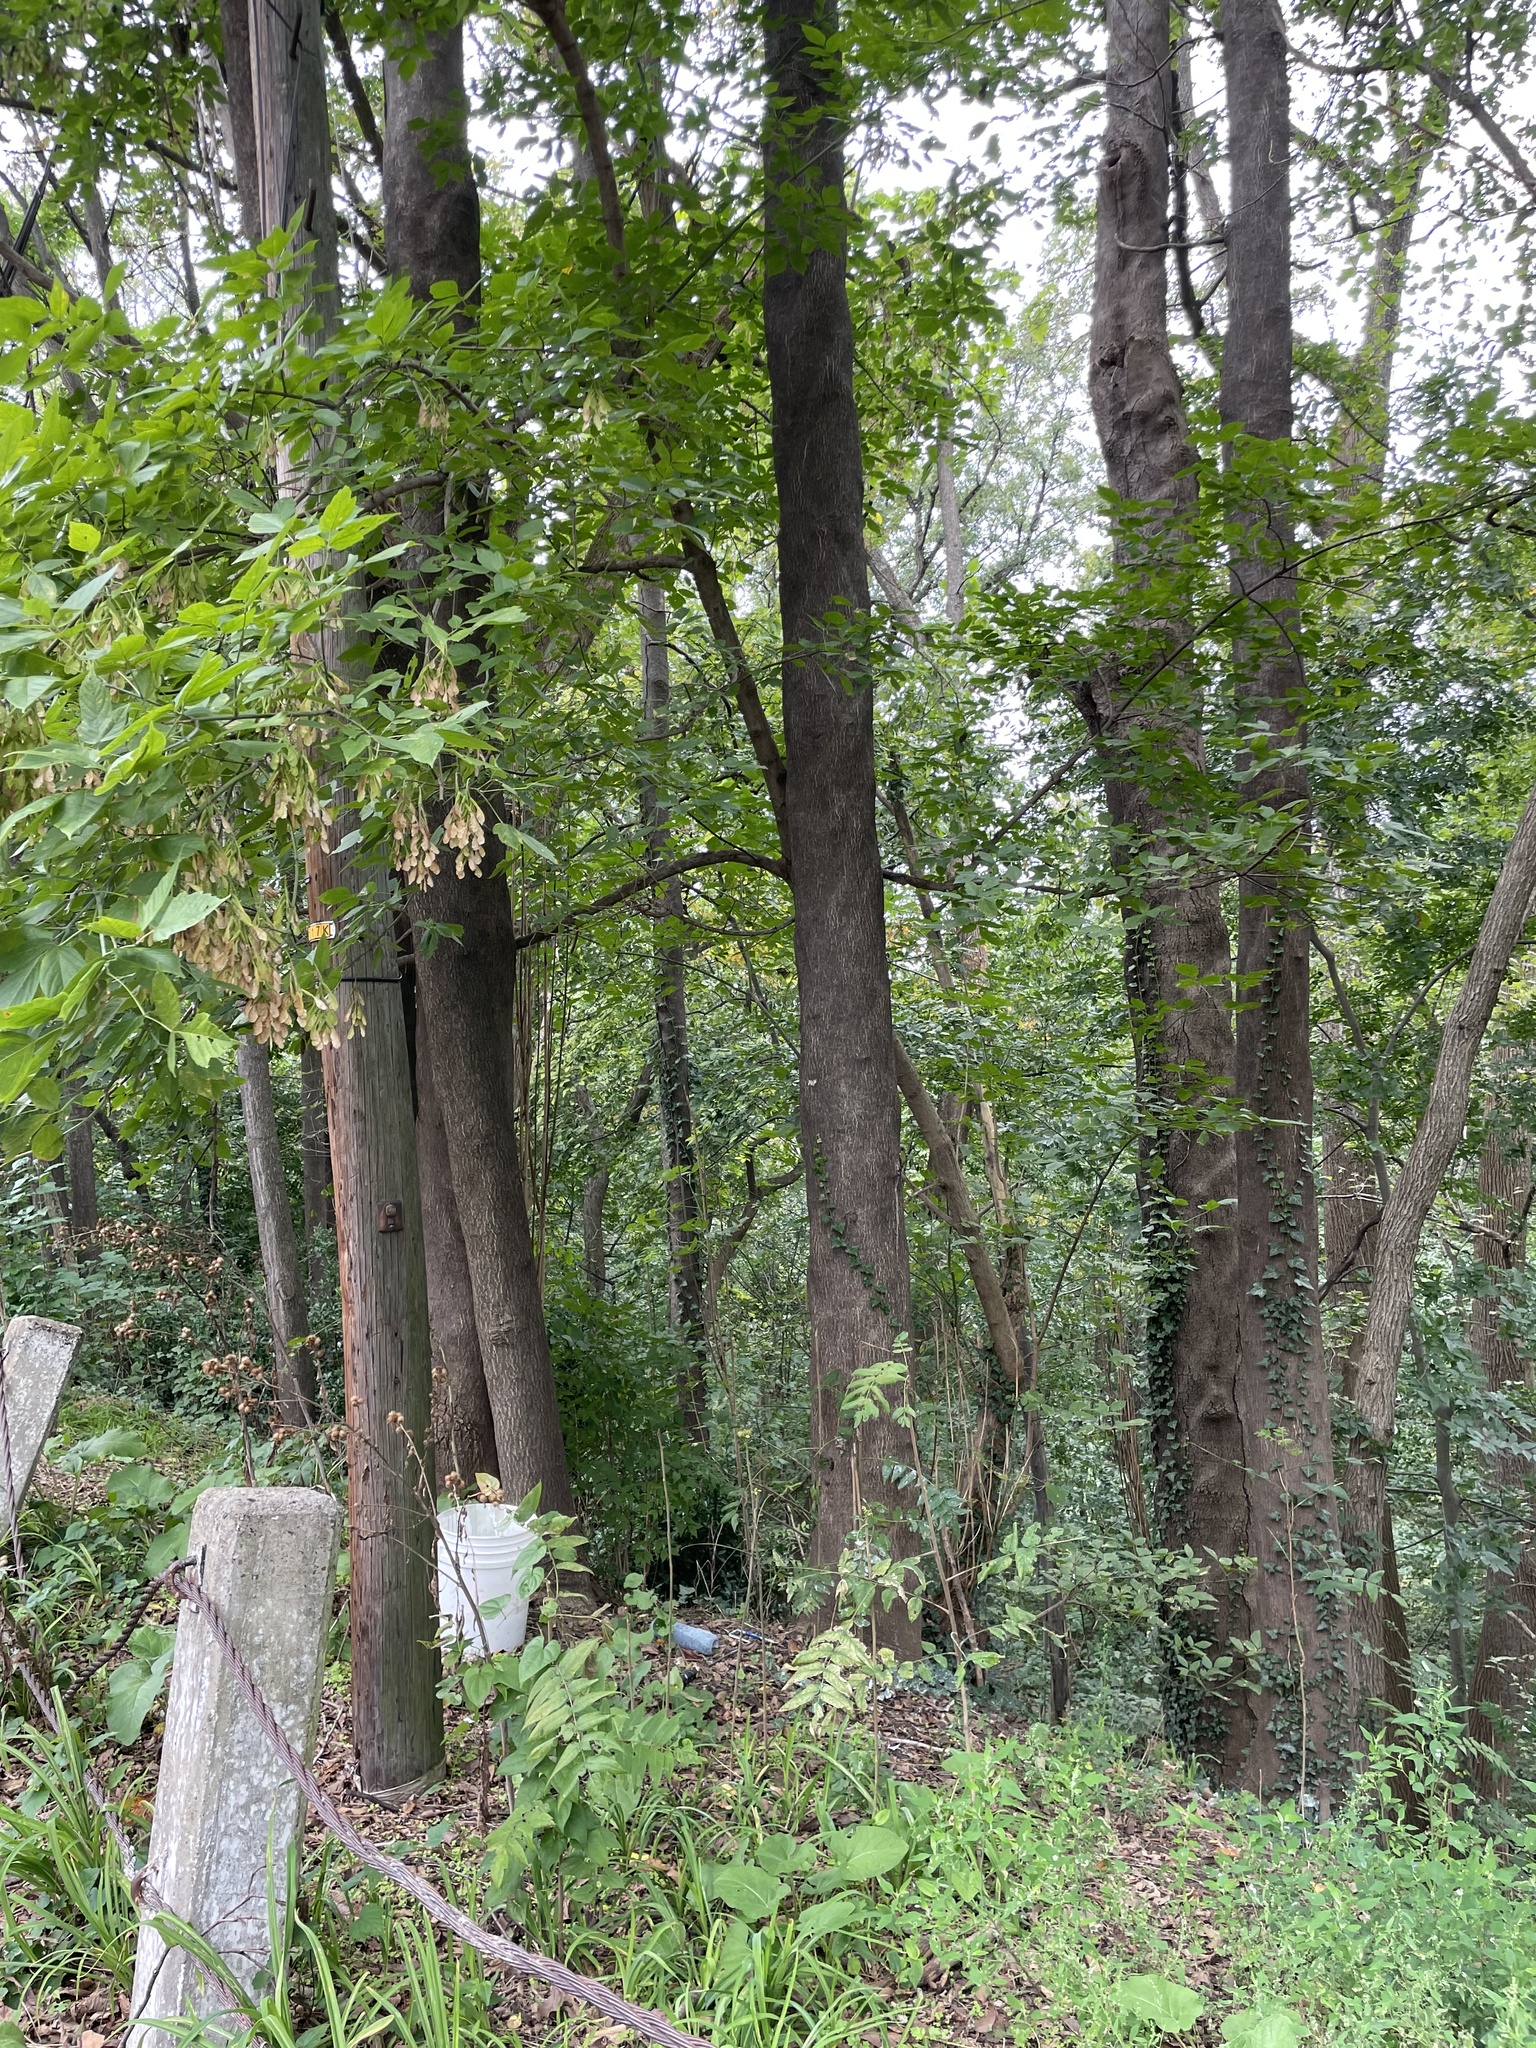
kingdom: Plantae
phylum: Tracheophyta
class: Magnoliopsida
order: Sapindales
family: Simaroubaceae
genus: Ailanthus
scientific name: Ailanthus altissima
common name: Tree-of-heaven
